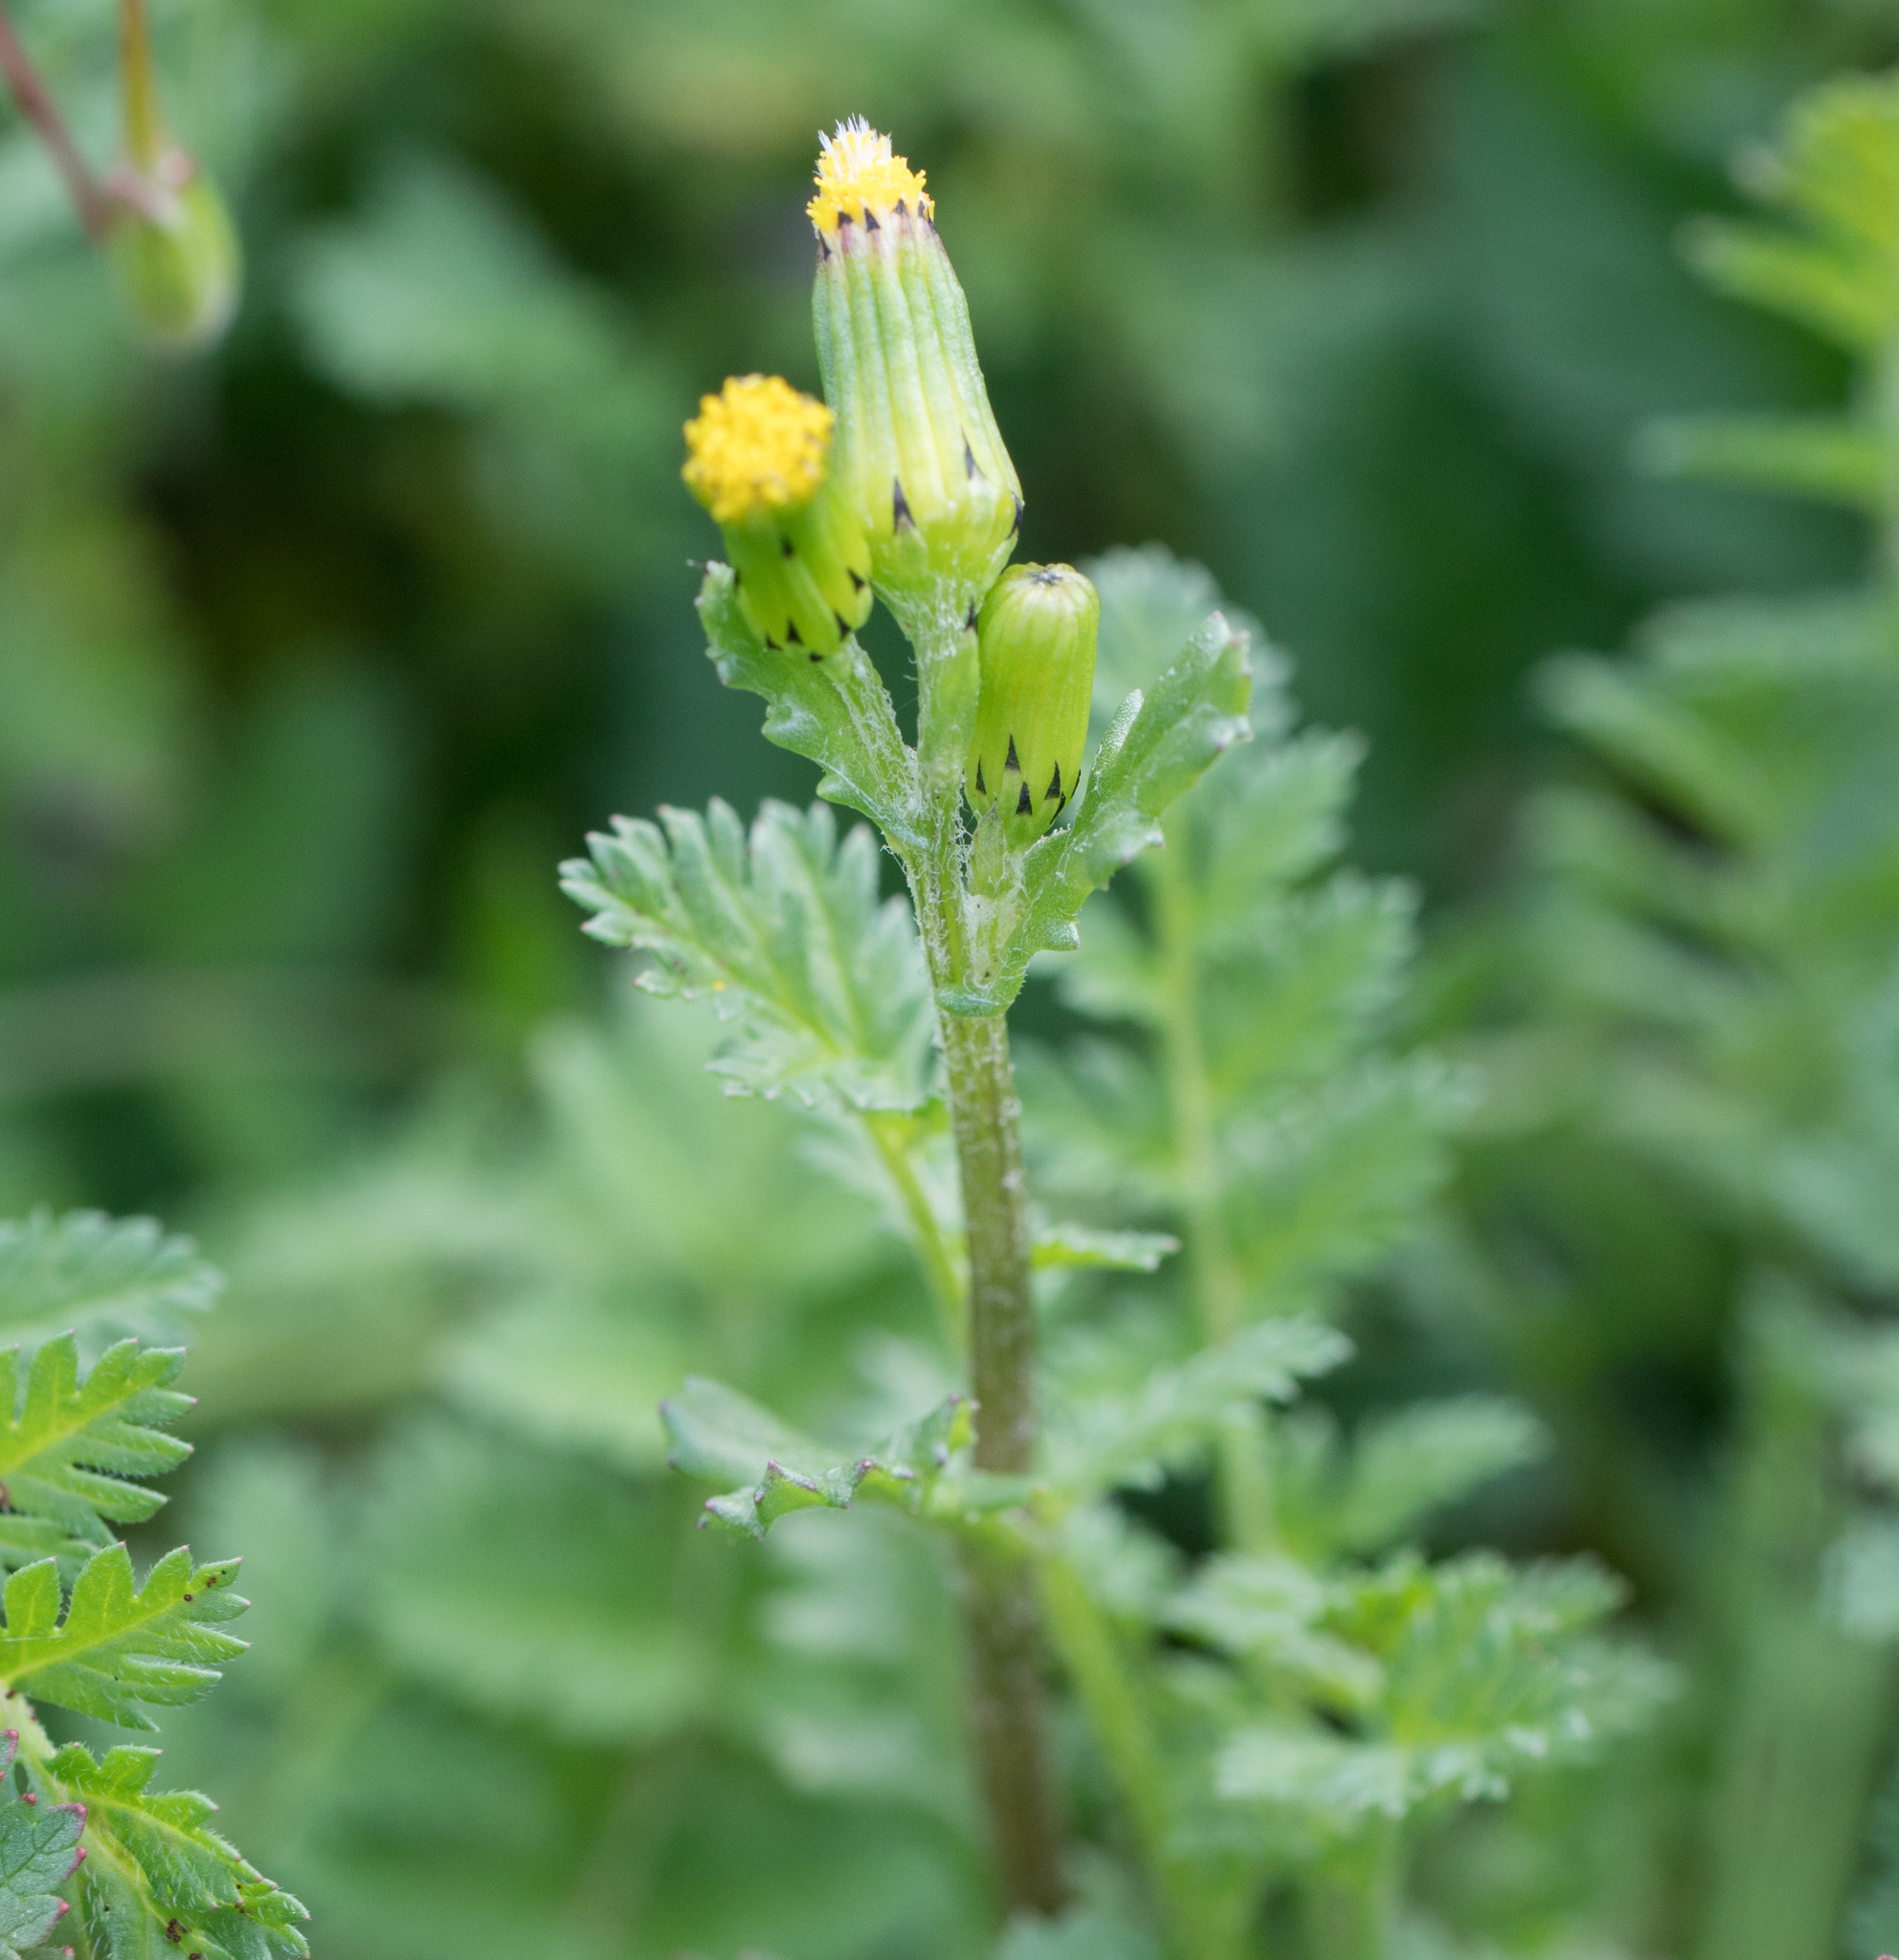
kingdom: Plantae
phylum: Tracheophyta
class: Magnoliopsida
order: Asterales
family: Asteraceae
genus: Senecio
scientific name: Senecio vulgaris
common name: Old-man-in-the-spring
